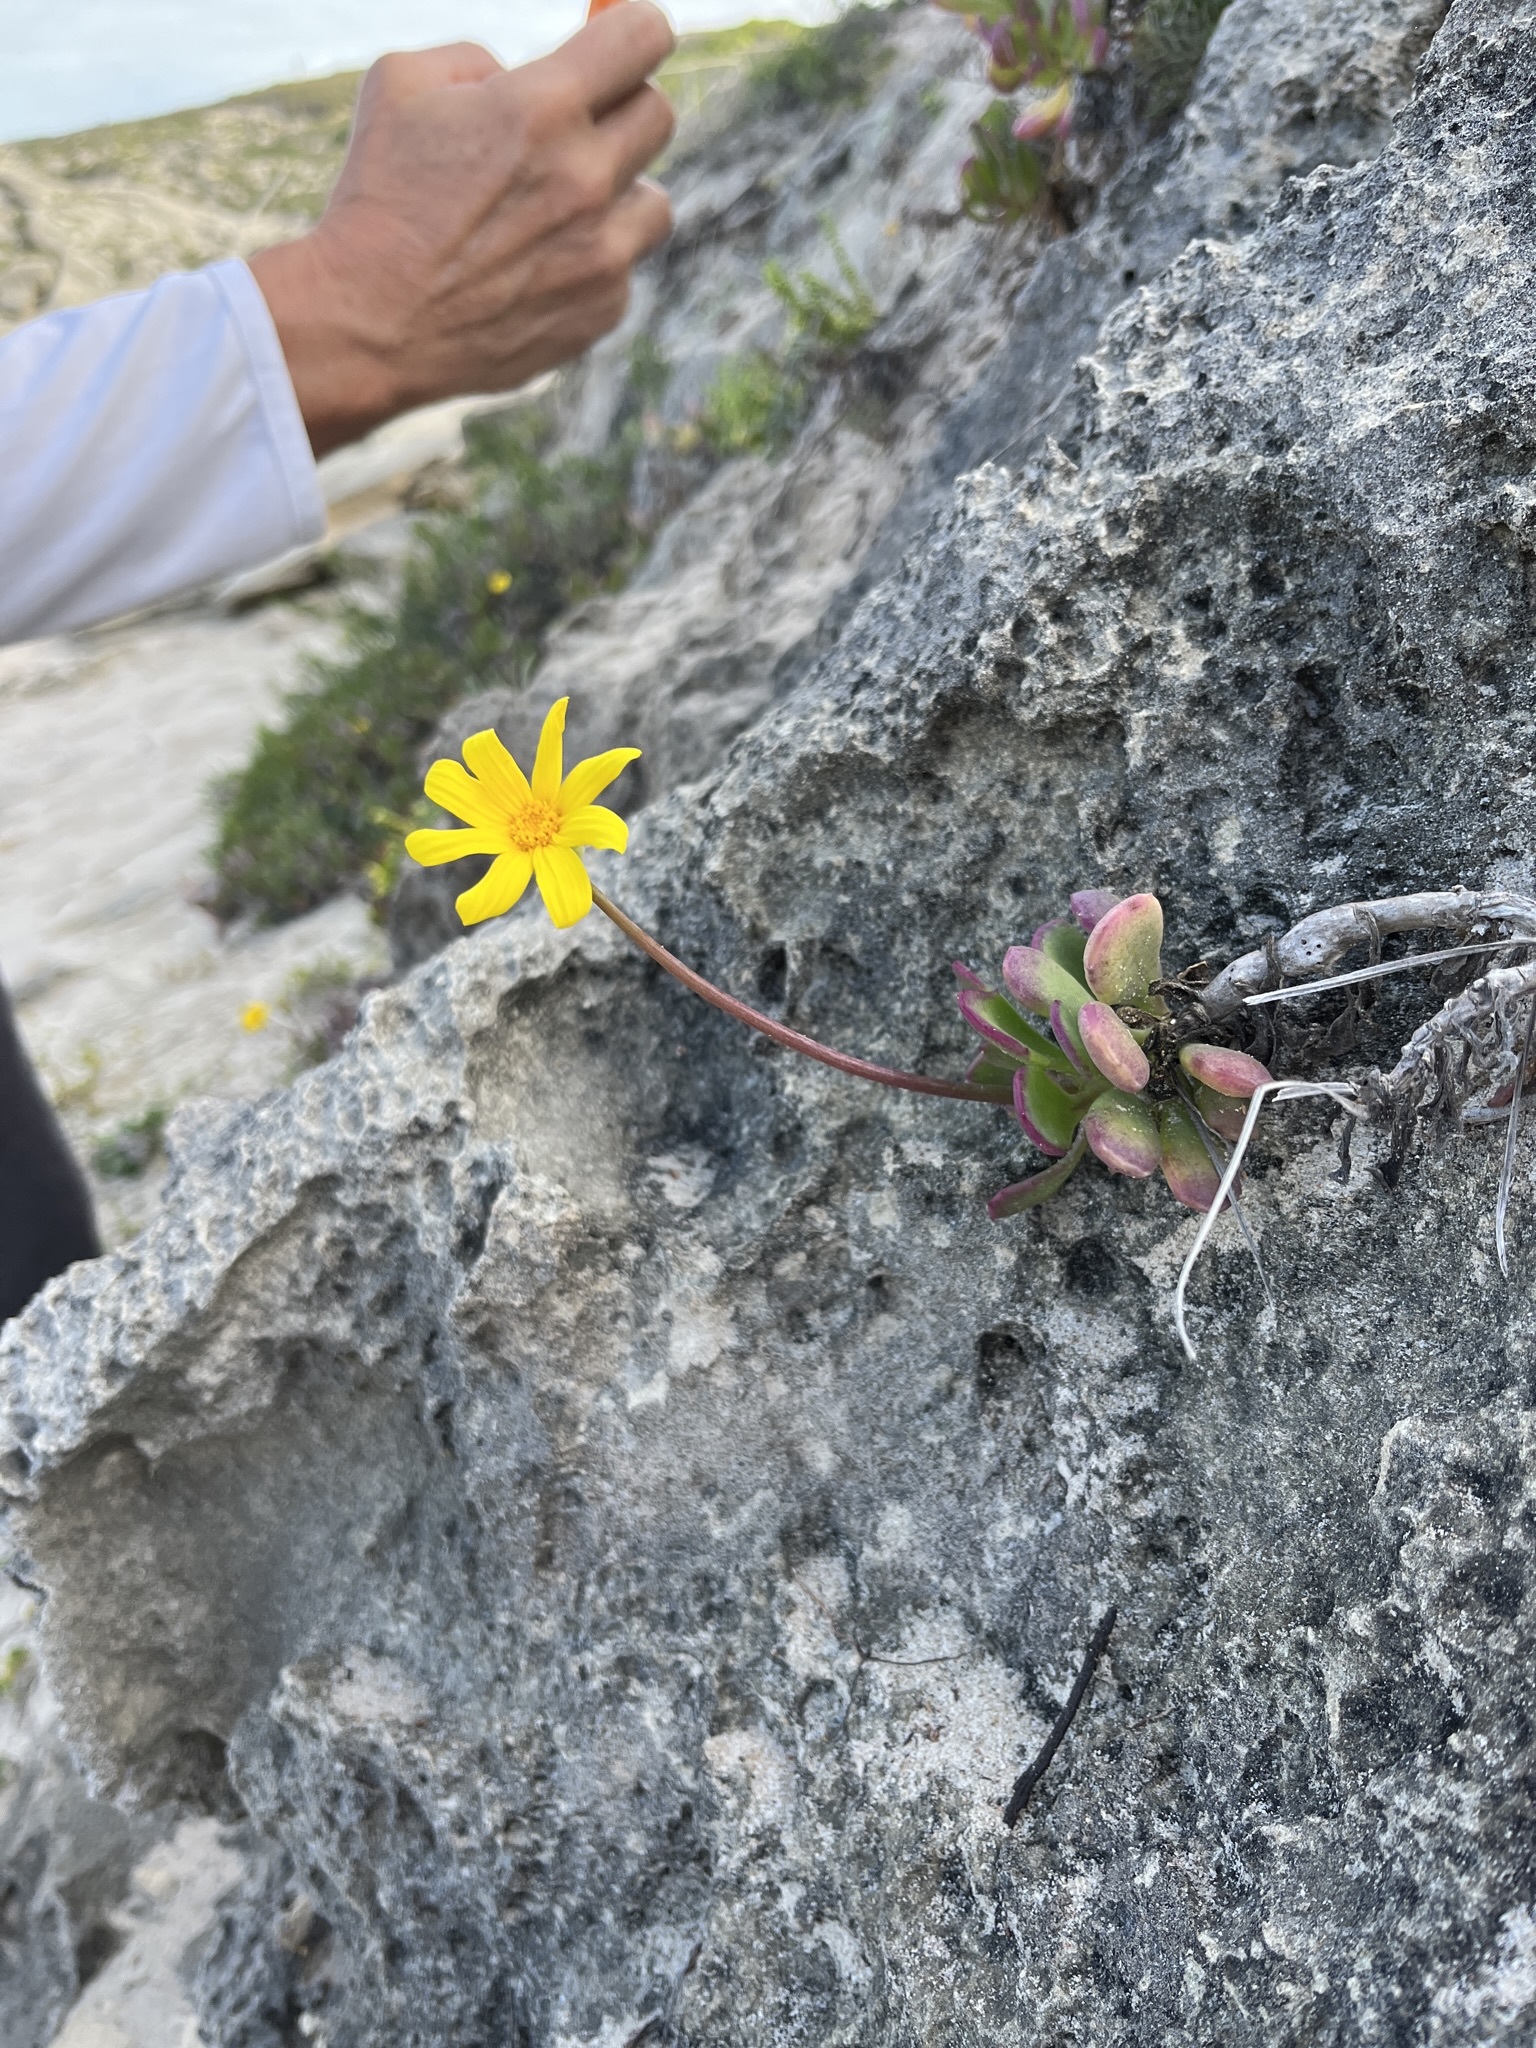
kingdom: Plantae
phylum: Tracheophyta
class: Magnoliopsida
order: Asterales
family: Asteraceae
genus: Othonna
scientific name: Othonna
